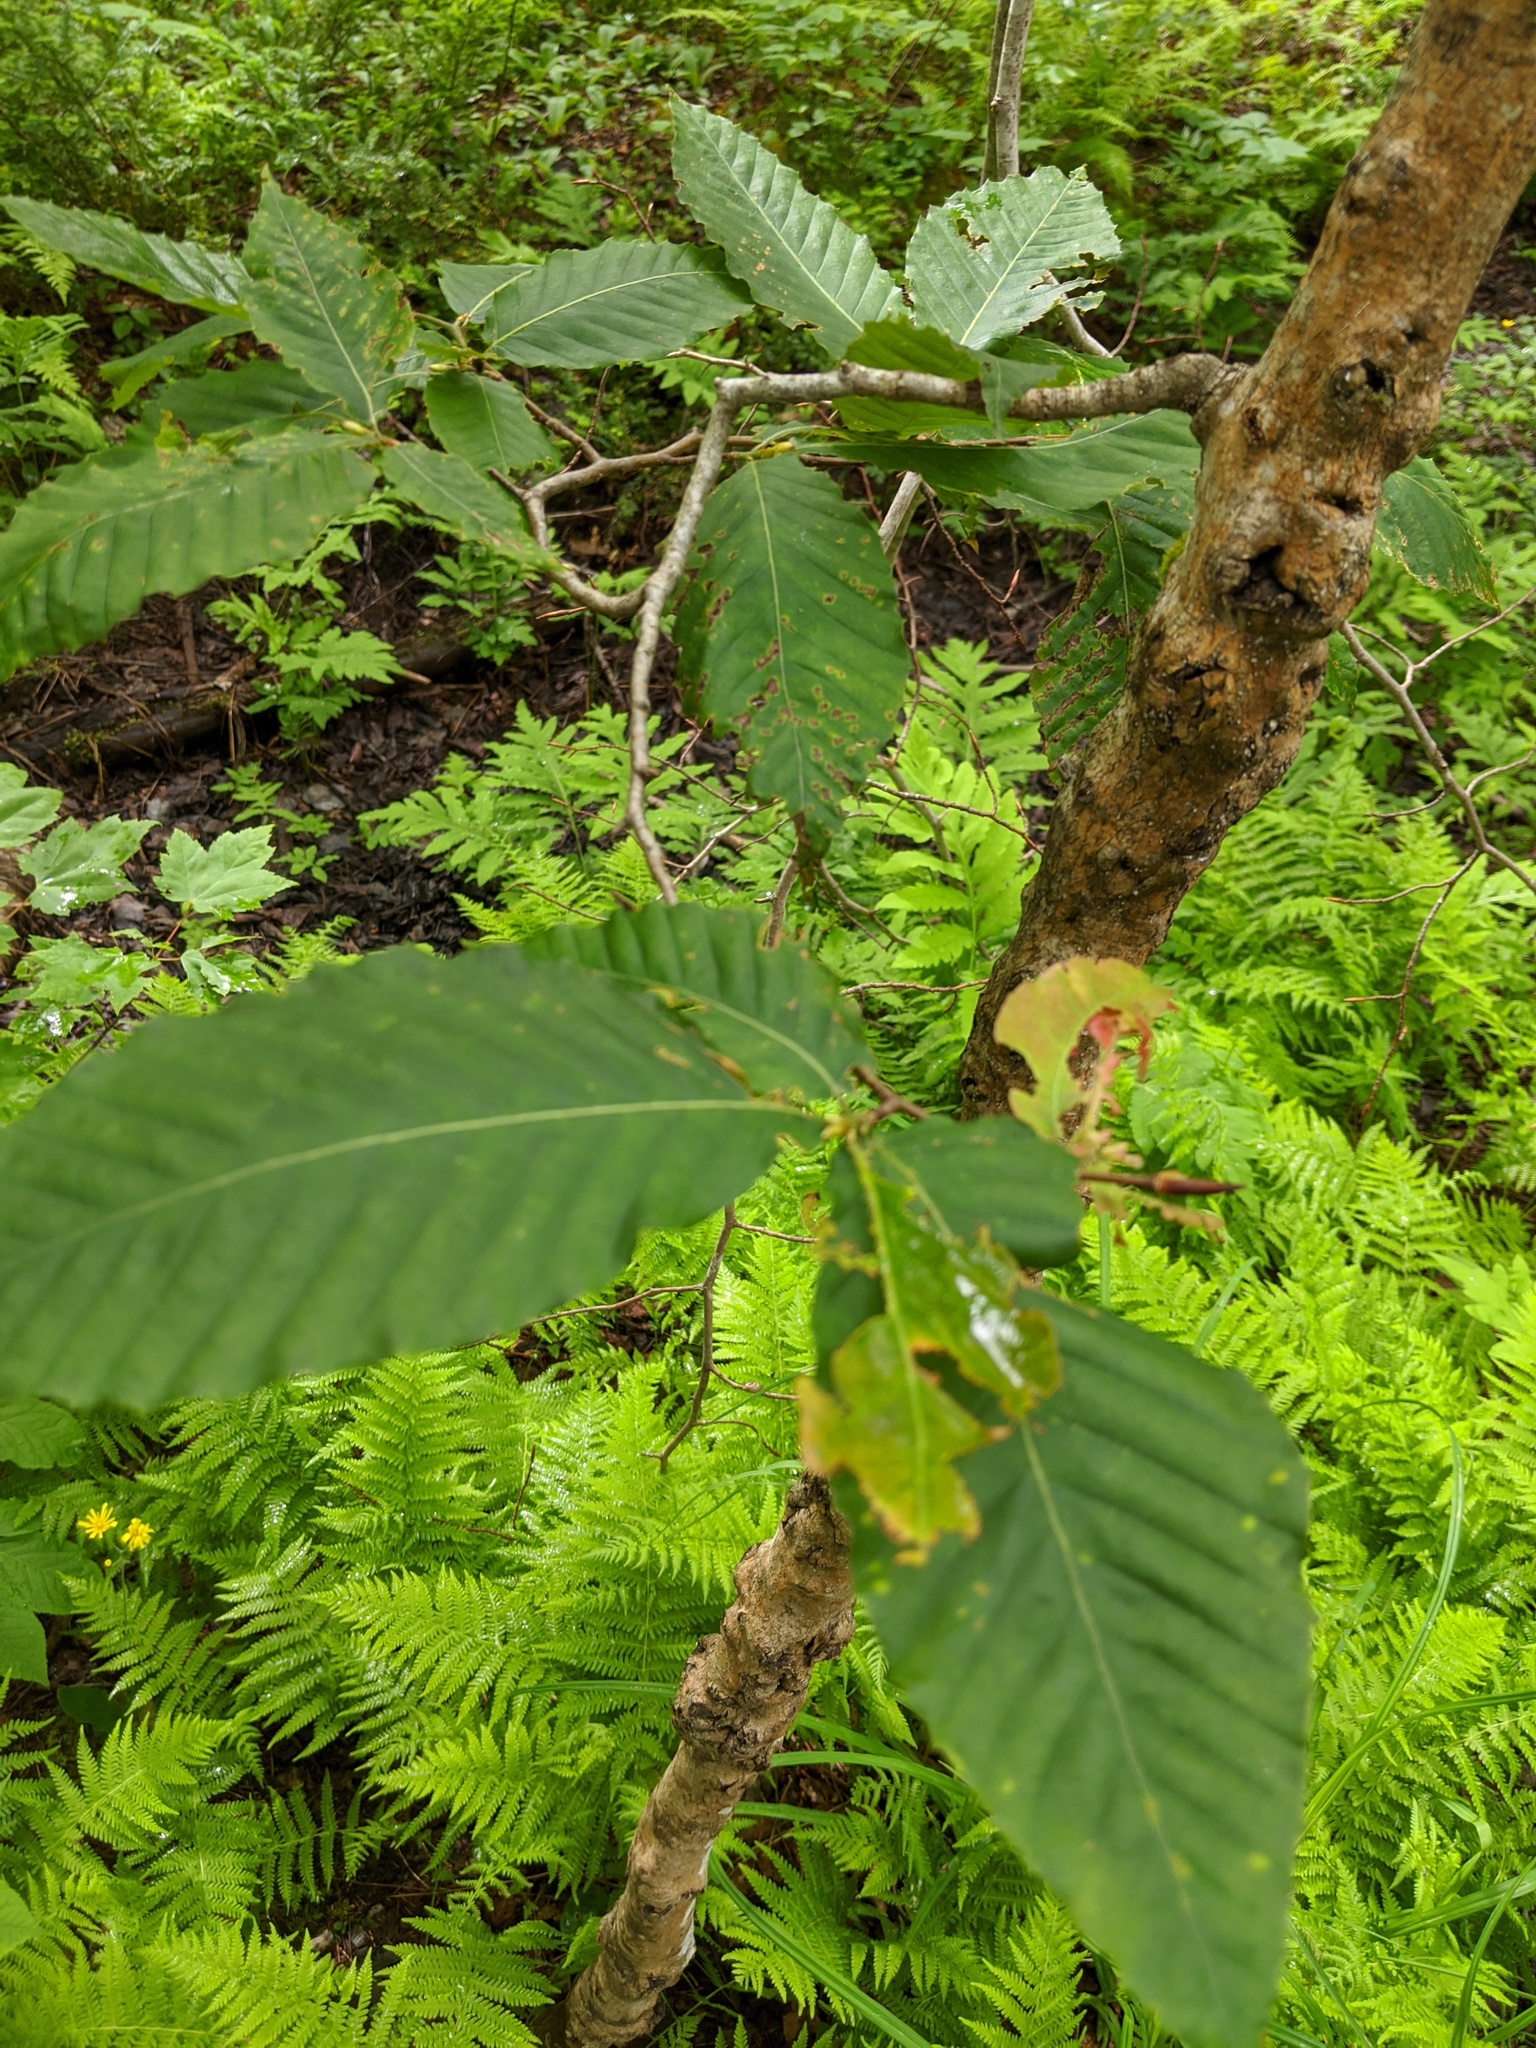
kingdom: Plantae
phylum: Tracheophyta
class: Magnoliopsida
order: Fagales
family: Fagaceae
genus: Fagus
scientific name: Fagus grandifolia
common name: American beech
